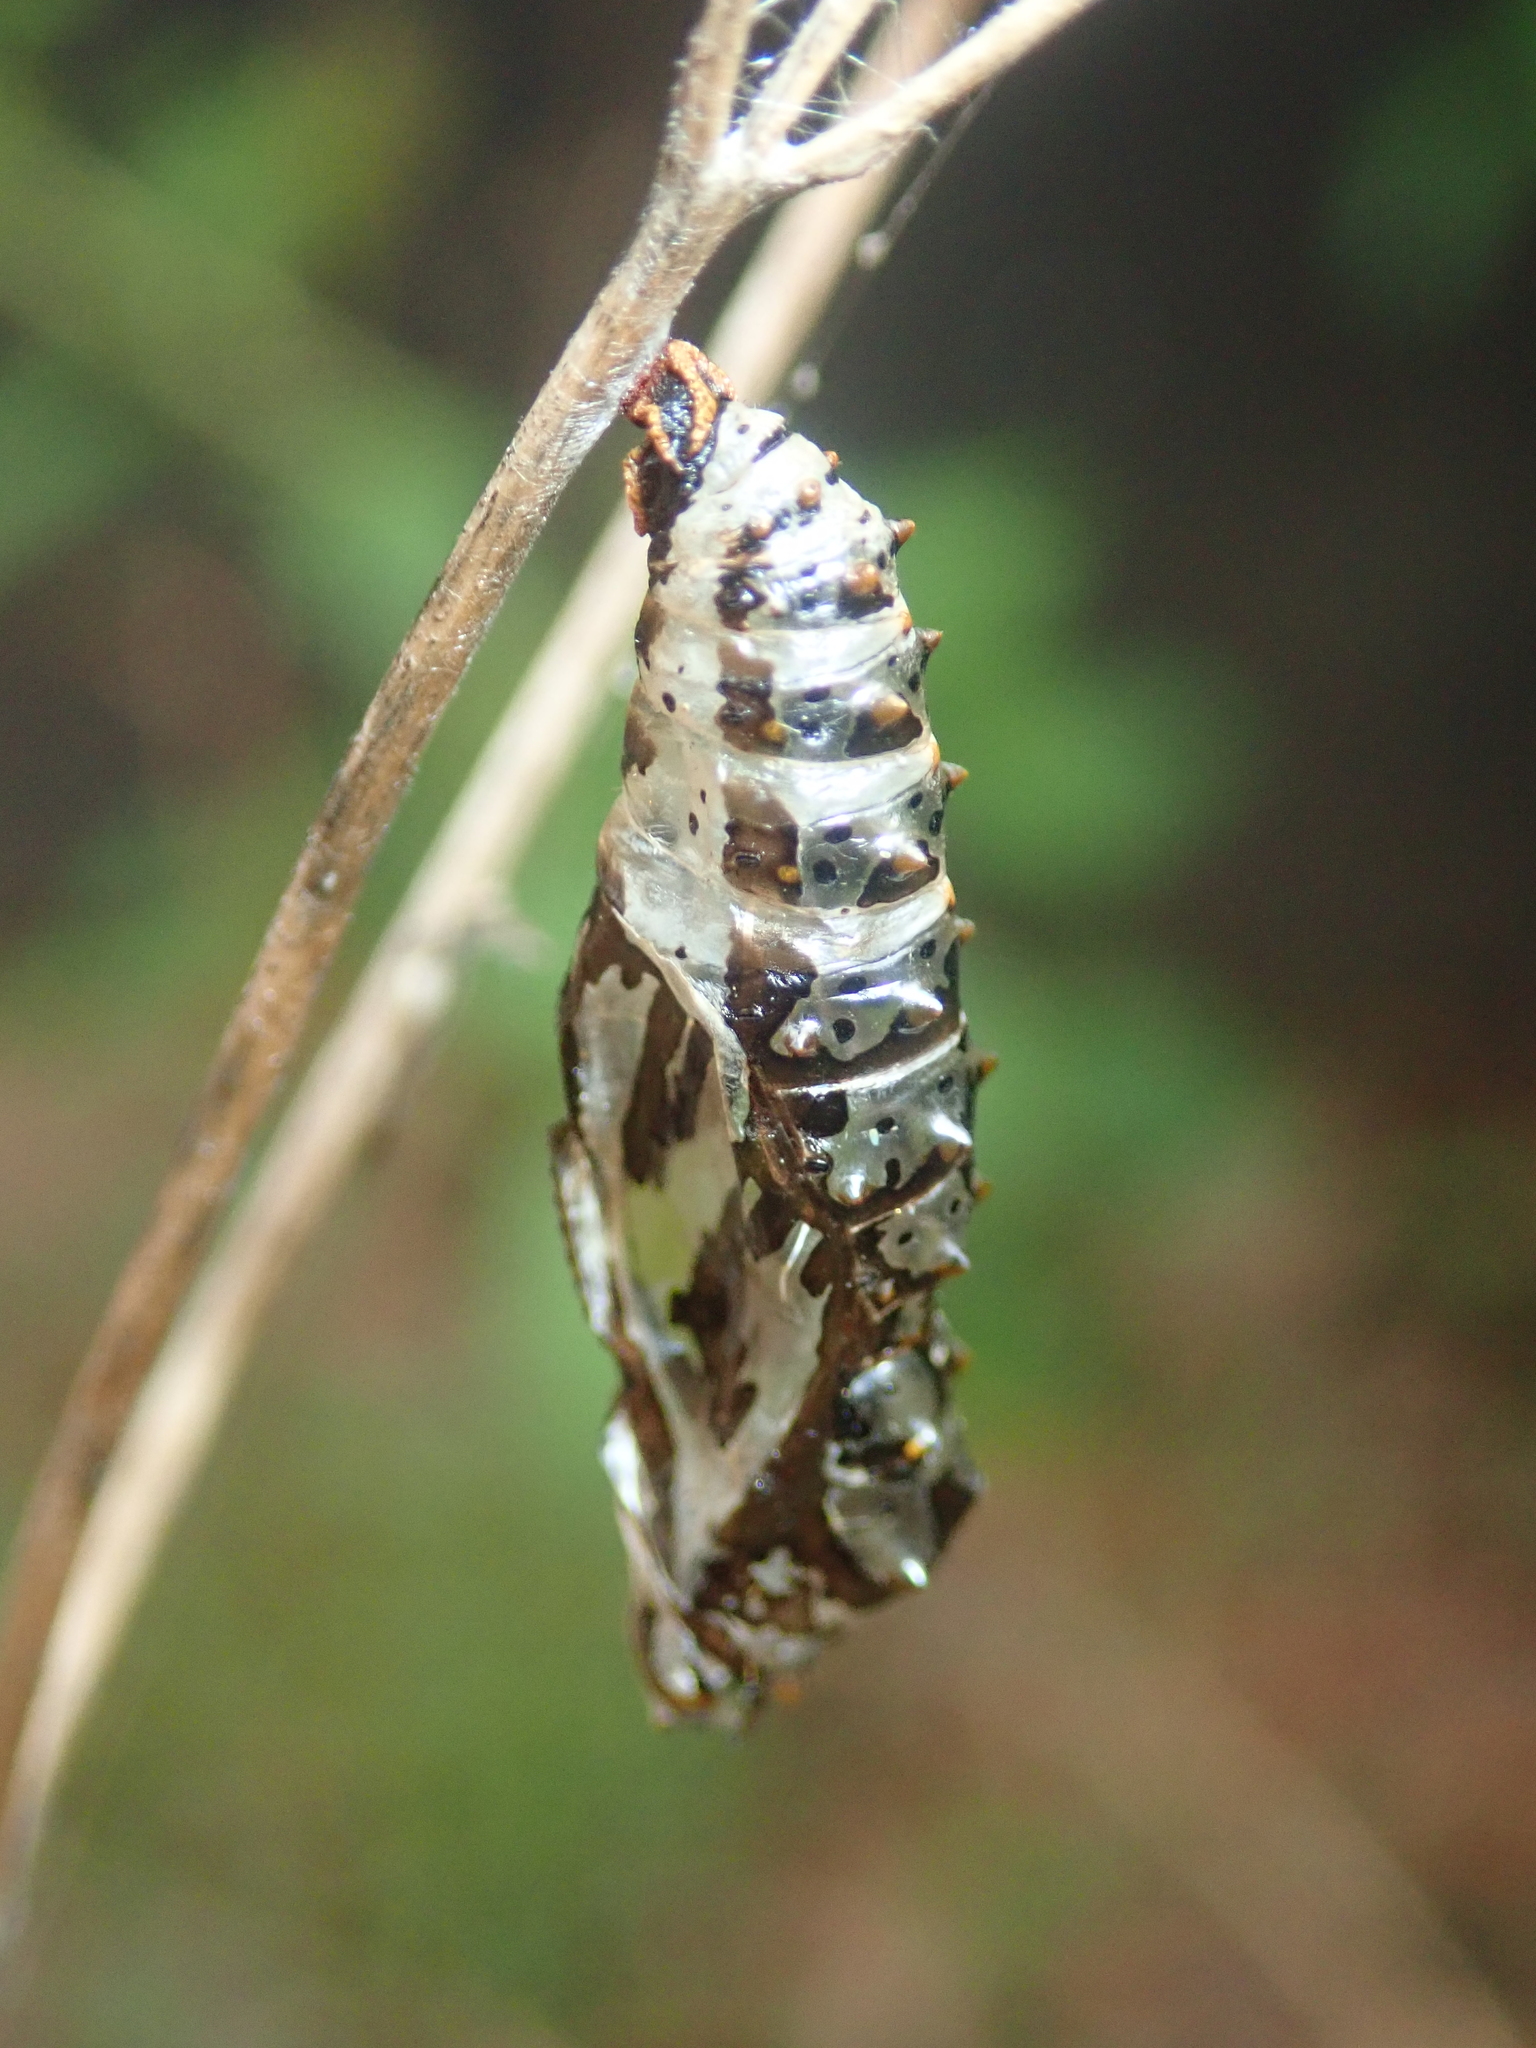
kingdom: Animalia
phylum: Arthropoda
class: Insecta
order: Lepidoptera
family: Nymphalidae
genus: Euptoieta
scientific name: Euptoieta hegesia
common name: Mexican fritillary
